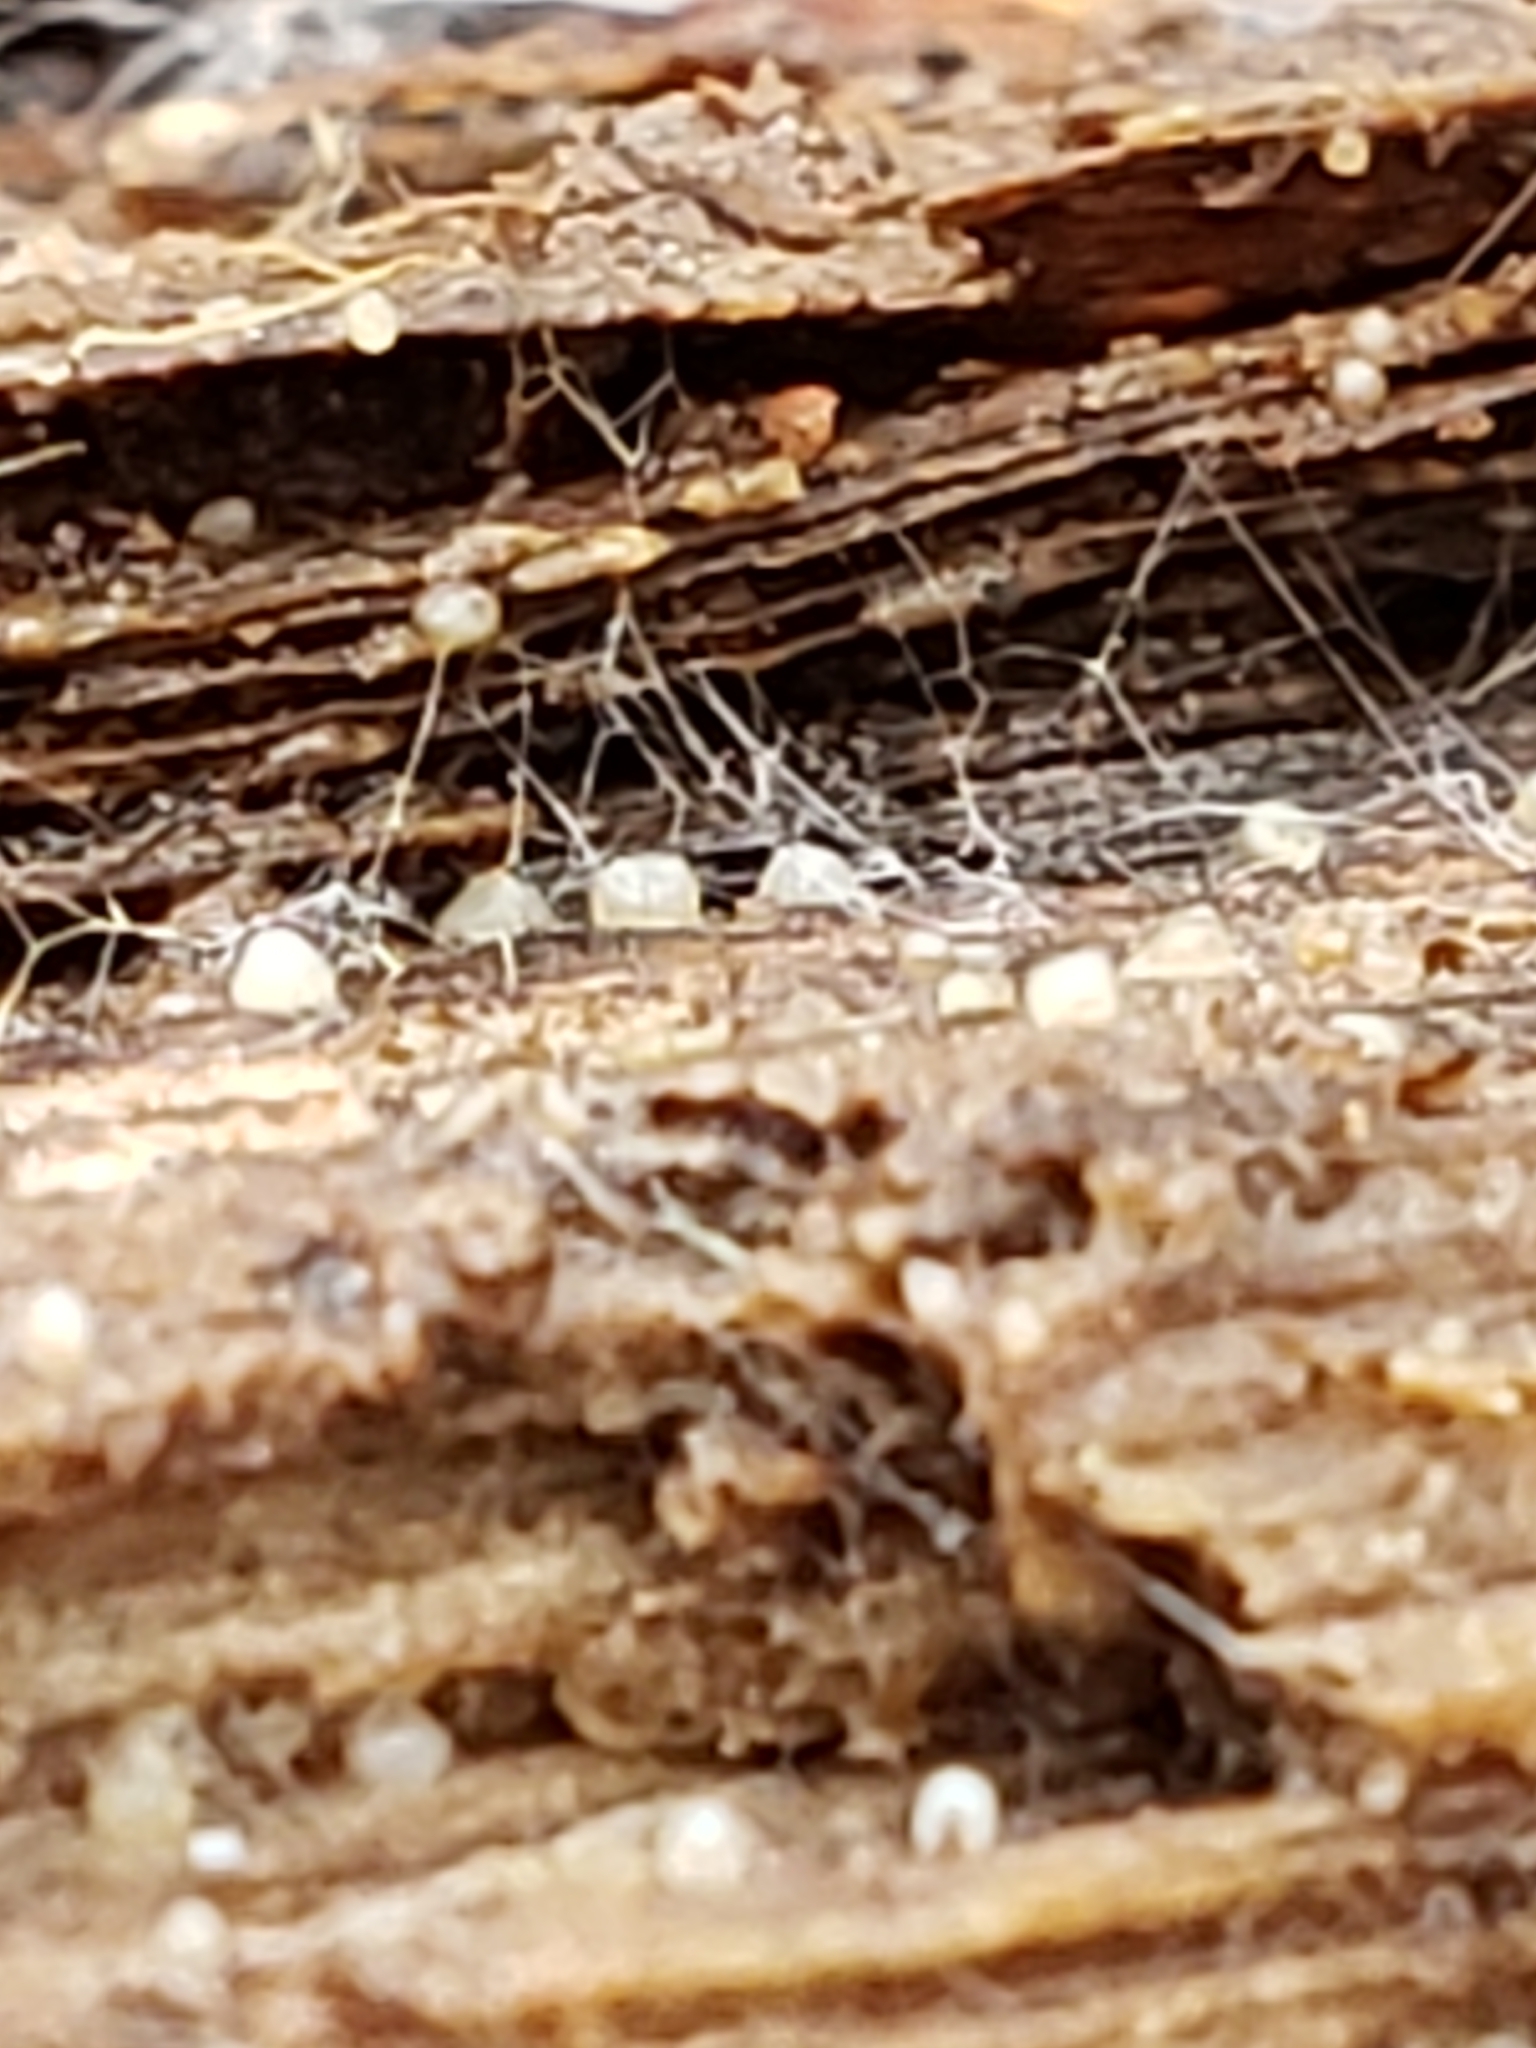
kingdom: Fungi
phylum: Basidiomycota
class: Atractiellomycetes
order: Atractiellales
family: Phleogenaceae
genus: Helicogloea
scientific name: Helicogloea compressa
